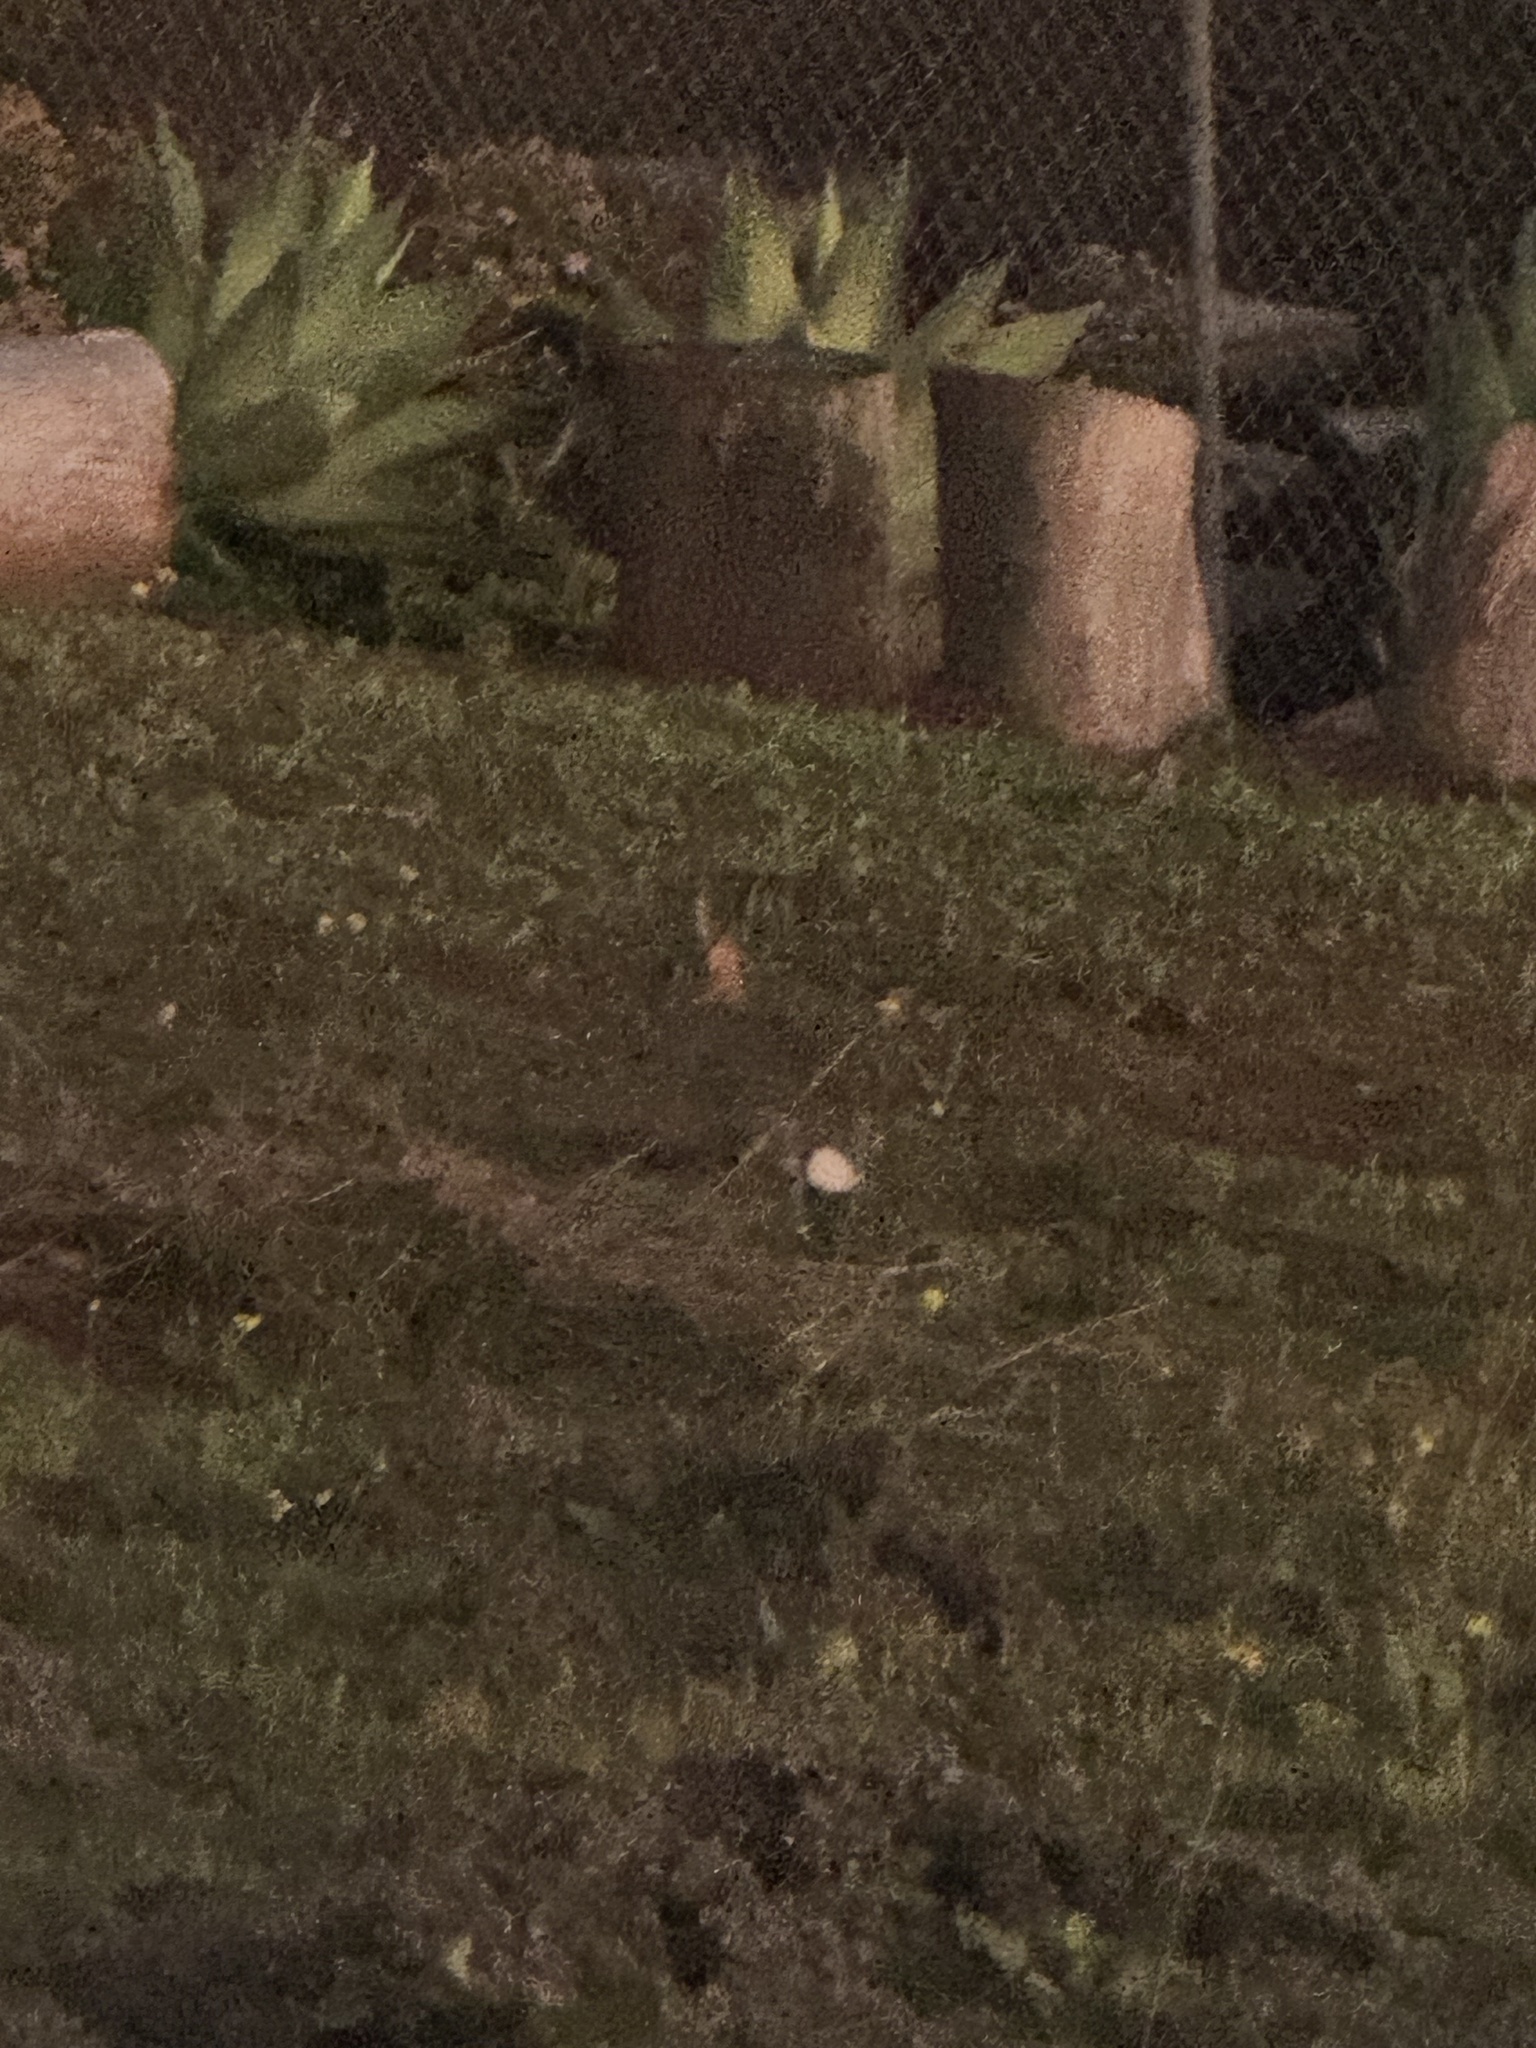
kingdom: Animalia
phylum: Chordata
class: Mammalia
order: Lagomorpha
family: Leporidae
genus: Sylvilagus
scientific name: Sylvilagus audubonii
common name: Desert cottontail
